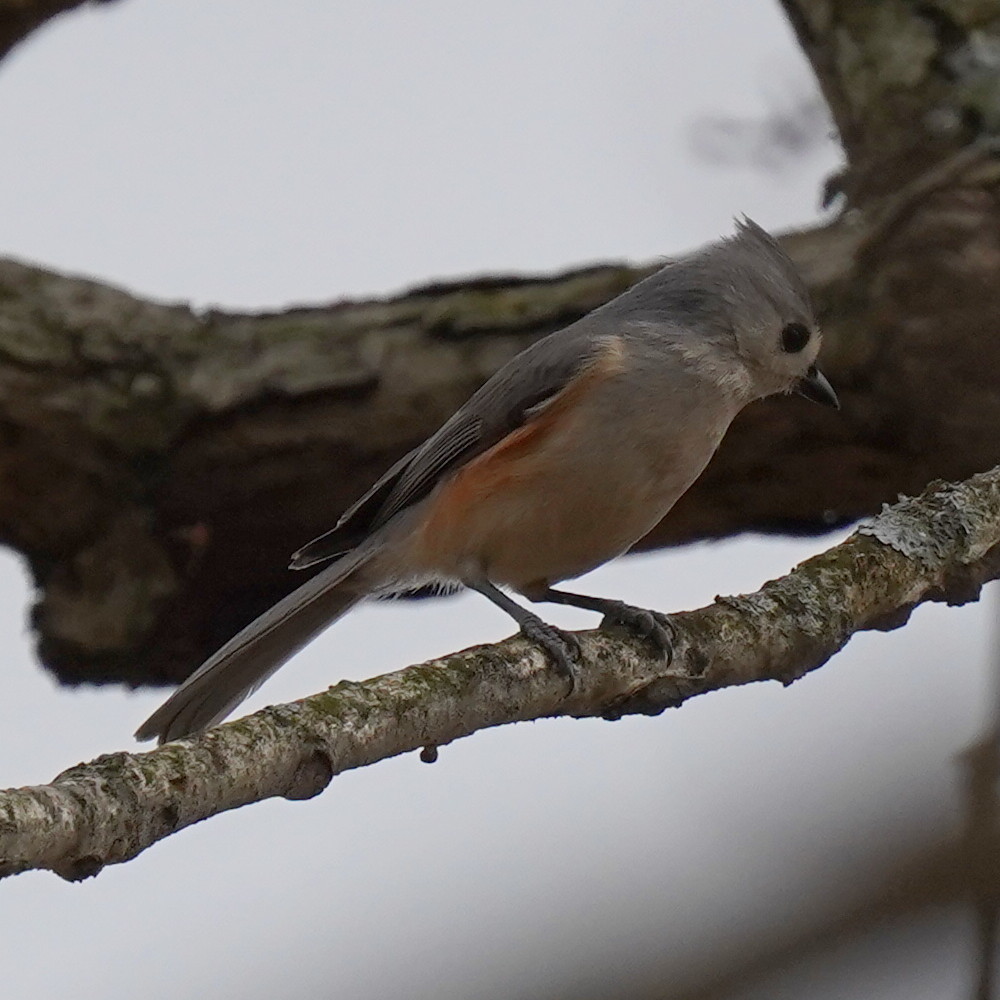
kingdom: Animalia
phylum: Chordata
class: Aves
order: Passeriformes
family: Paridae
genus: Baeolophus
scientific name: Baeolophus bicolor
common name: Tufted titmouse
